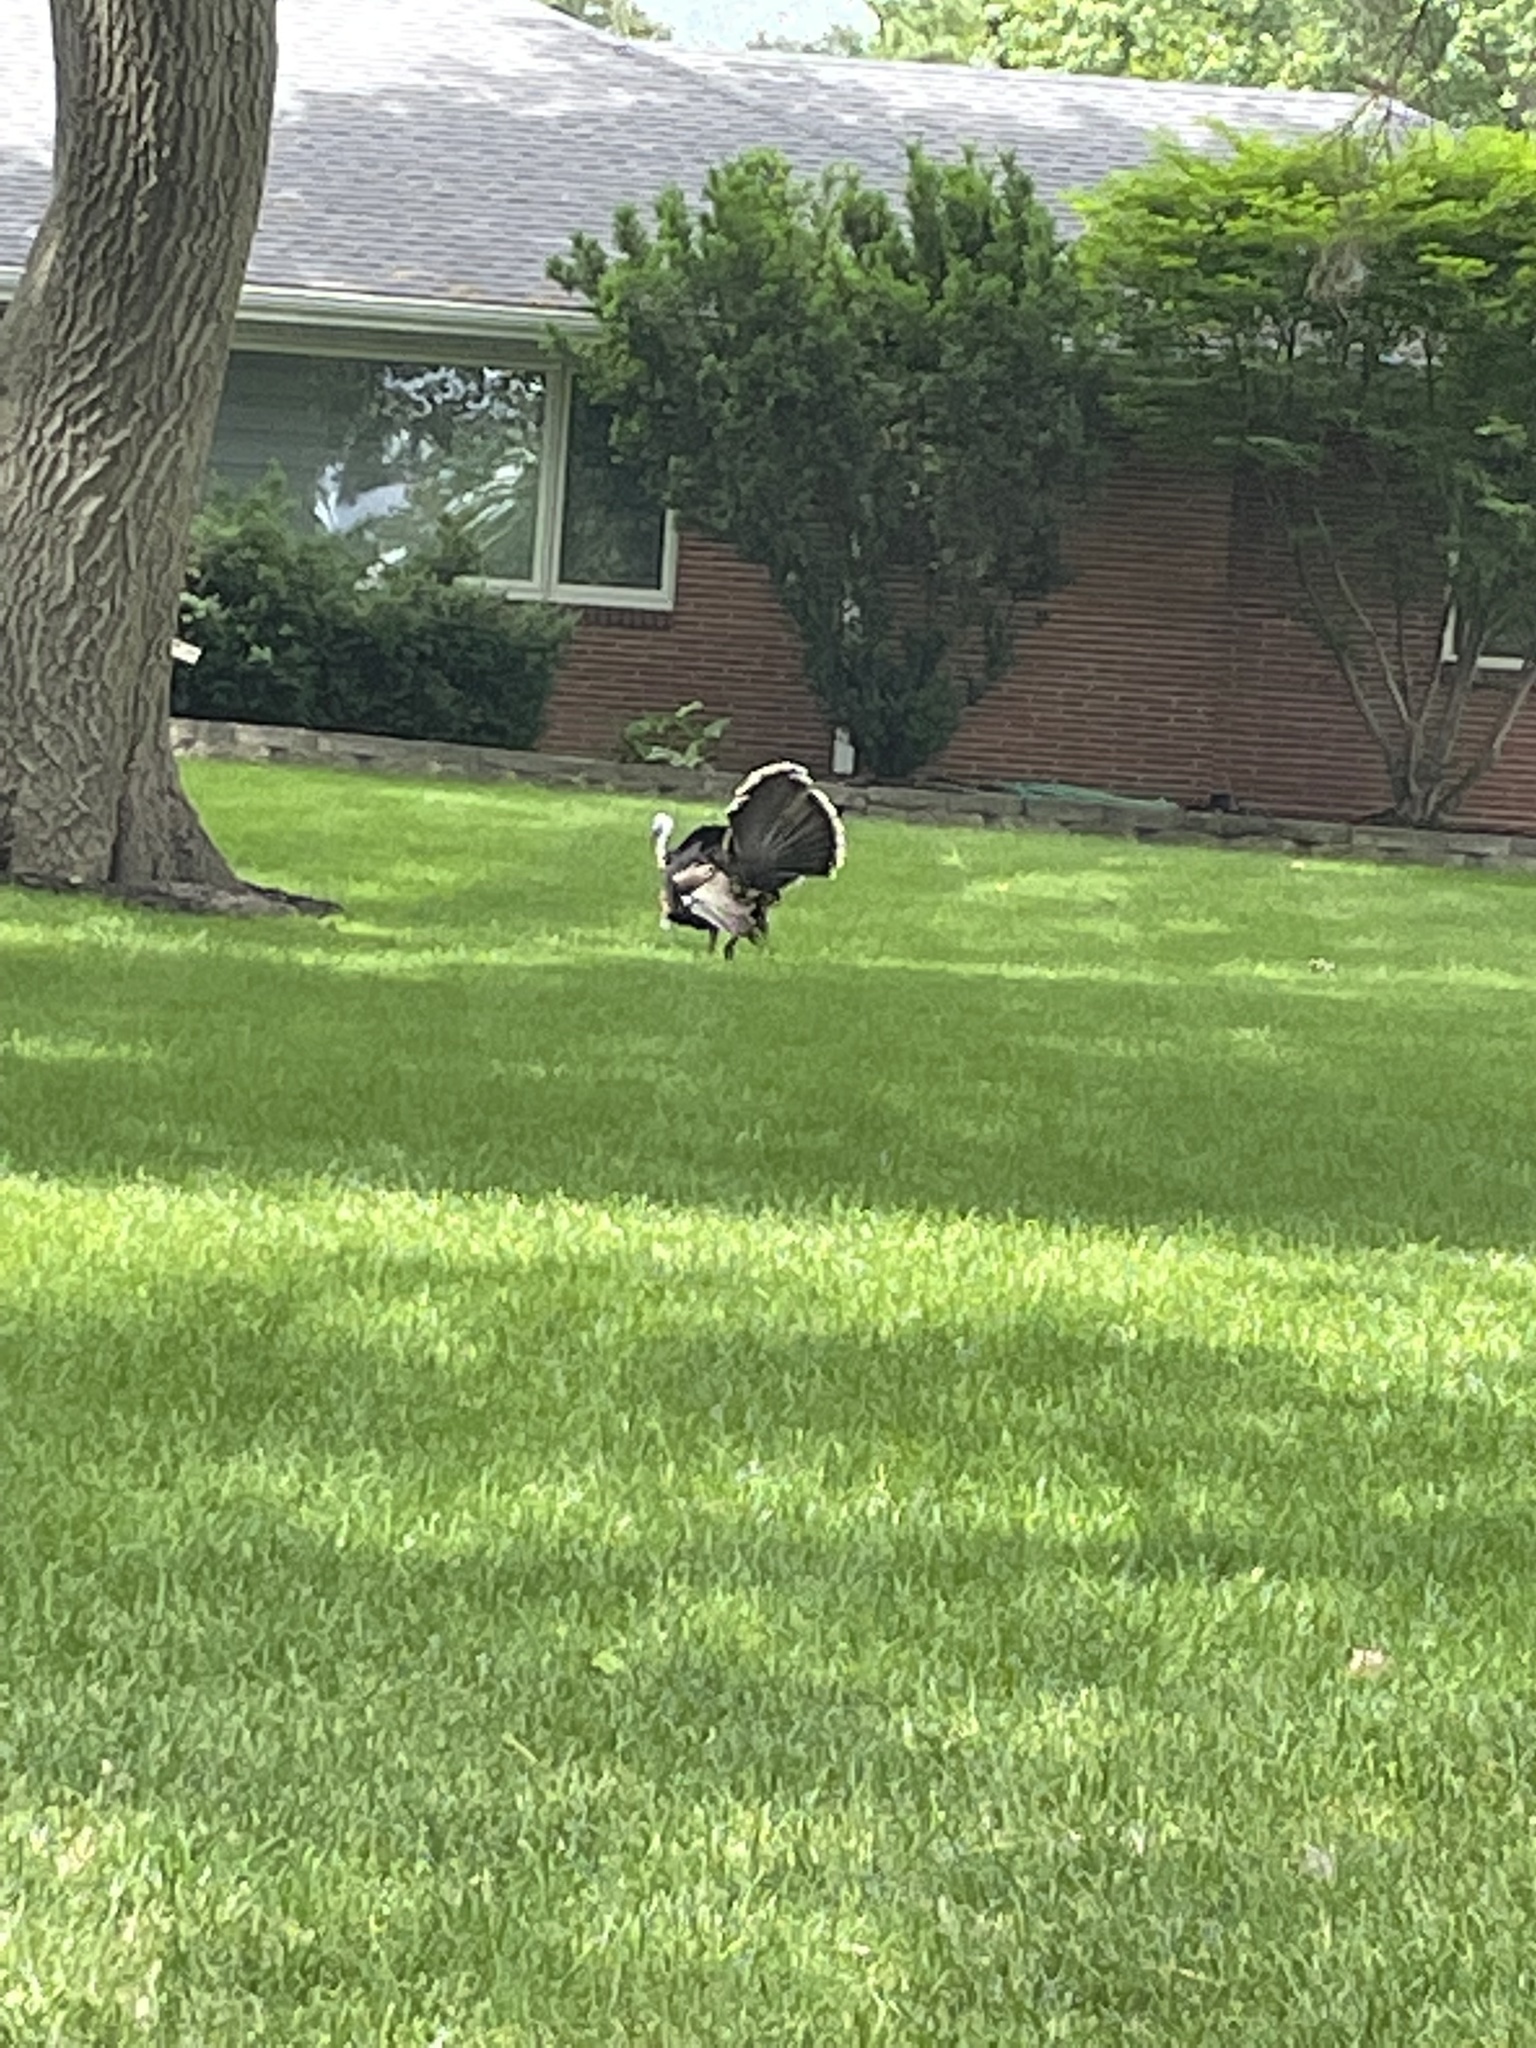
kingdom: Animalia
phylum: Chordata
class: Aves
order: Galliformes
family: Phasianidae
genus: Meleagris
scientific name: Meleagris gallopavo
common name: Wild turkey
